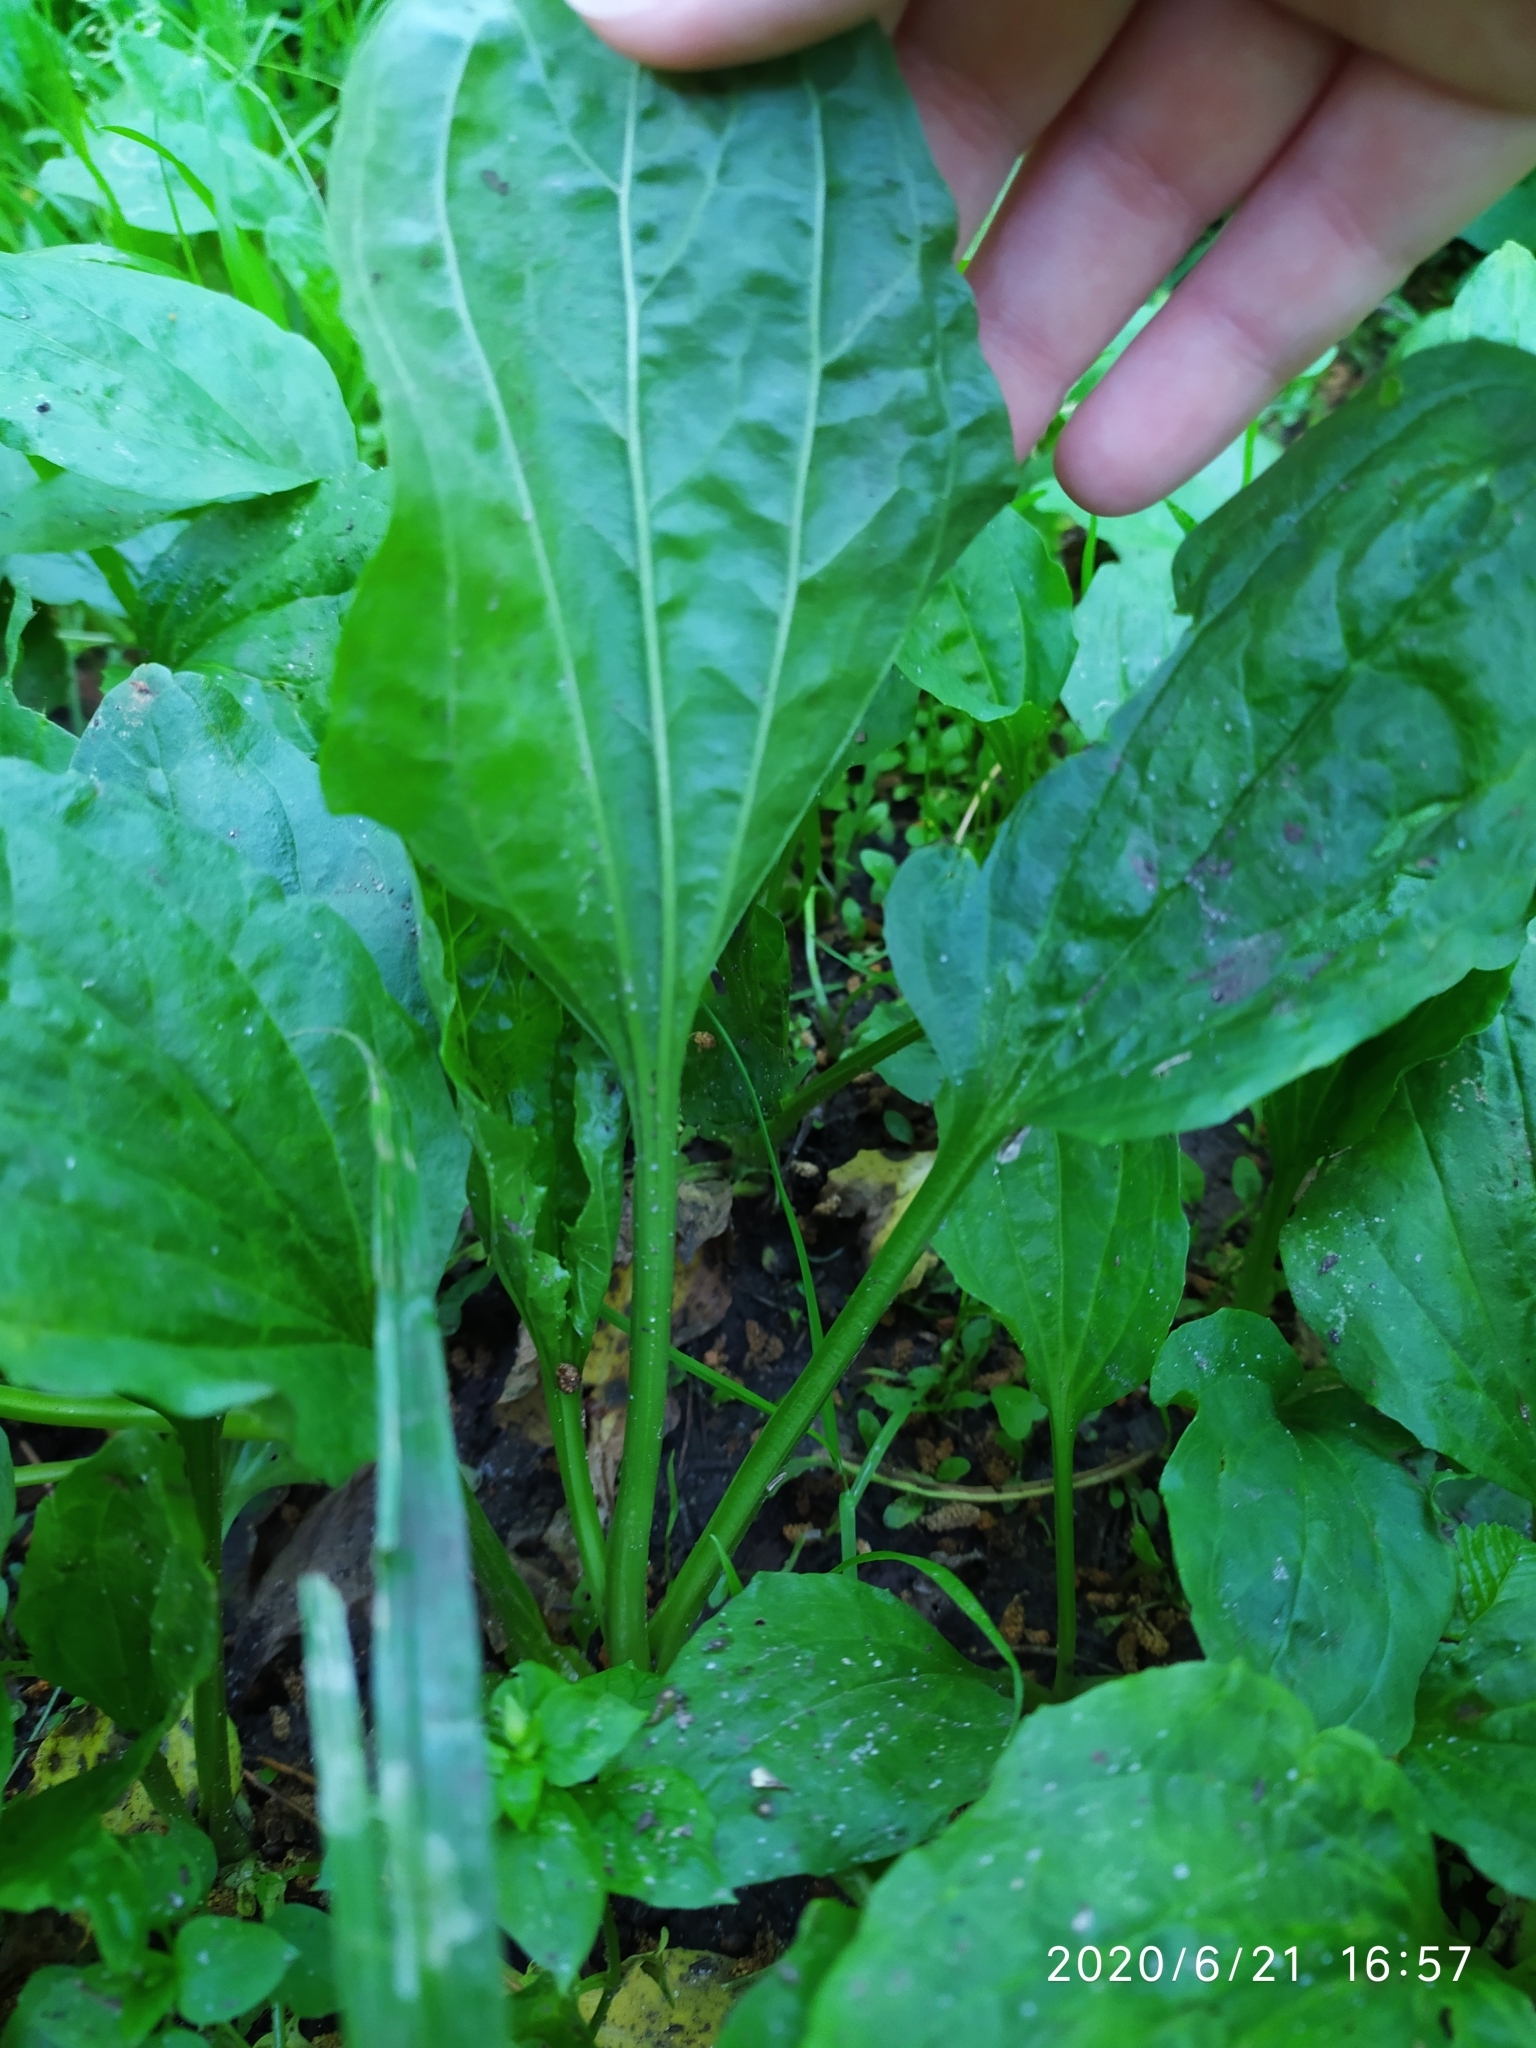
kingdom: Plantae
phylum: Tracheophyta
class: Magnoliopsida
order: Lamiales
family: Plantaginaceae
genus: Plantago
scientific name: Plantago major
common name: Common plantain
